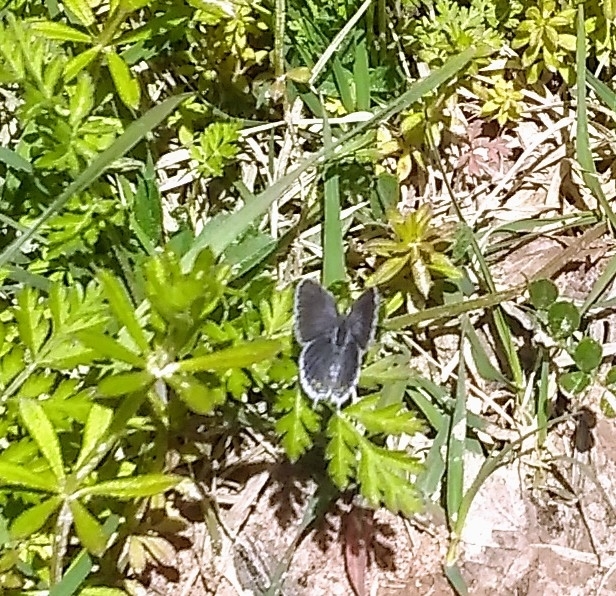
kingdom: Animalia
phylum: Arthropoda
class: Insecta
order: Lepidoptera
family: Lycaenidae
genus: Elkalyce
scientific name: Elkalyce comyntas
